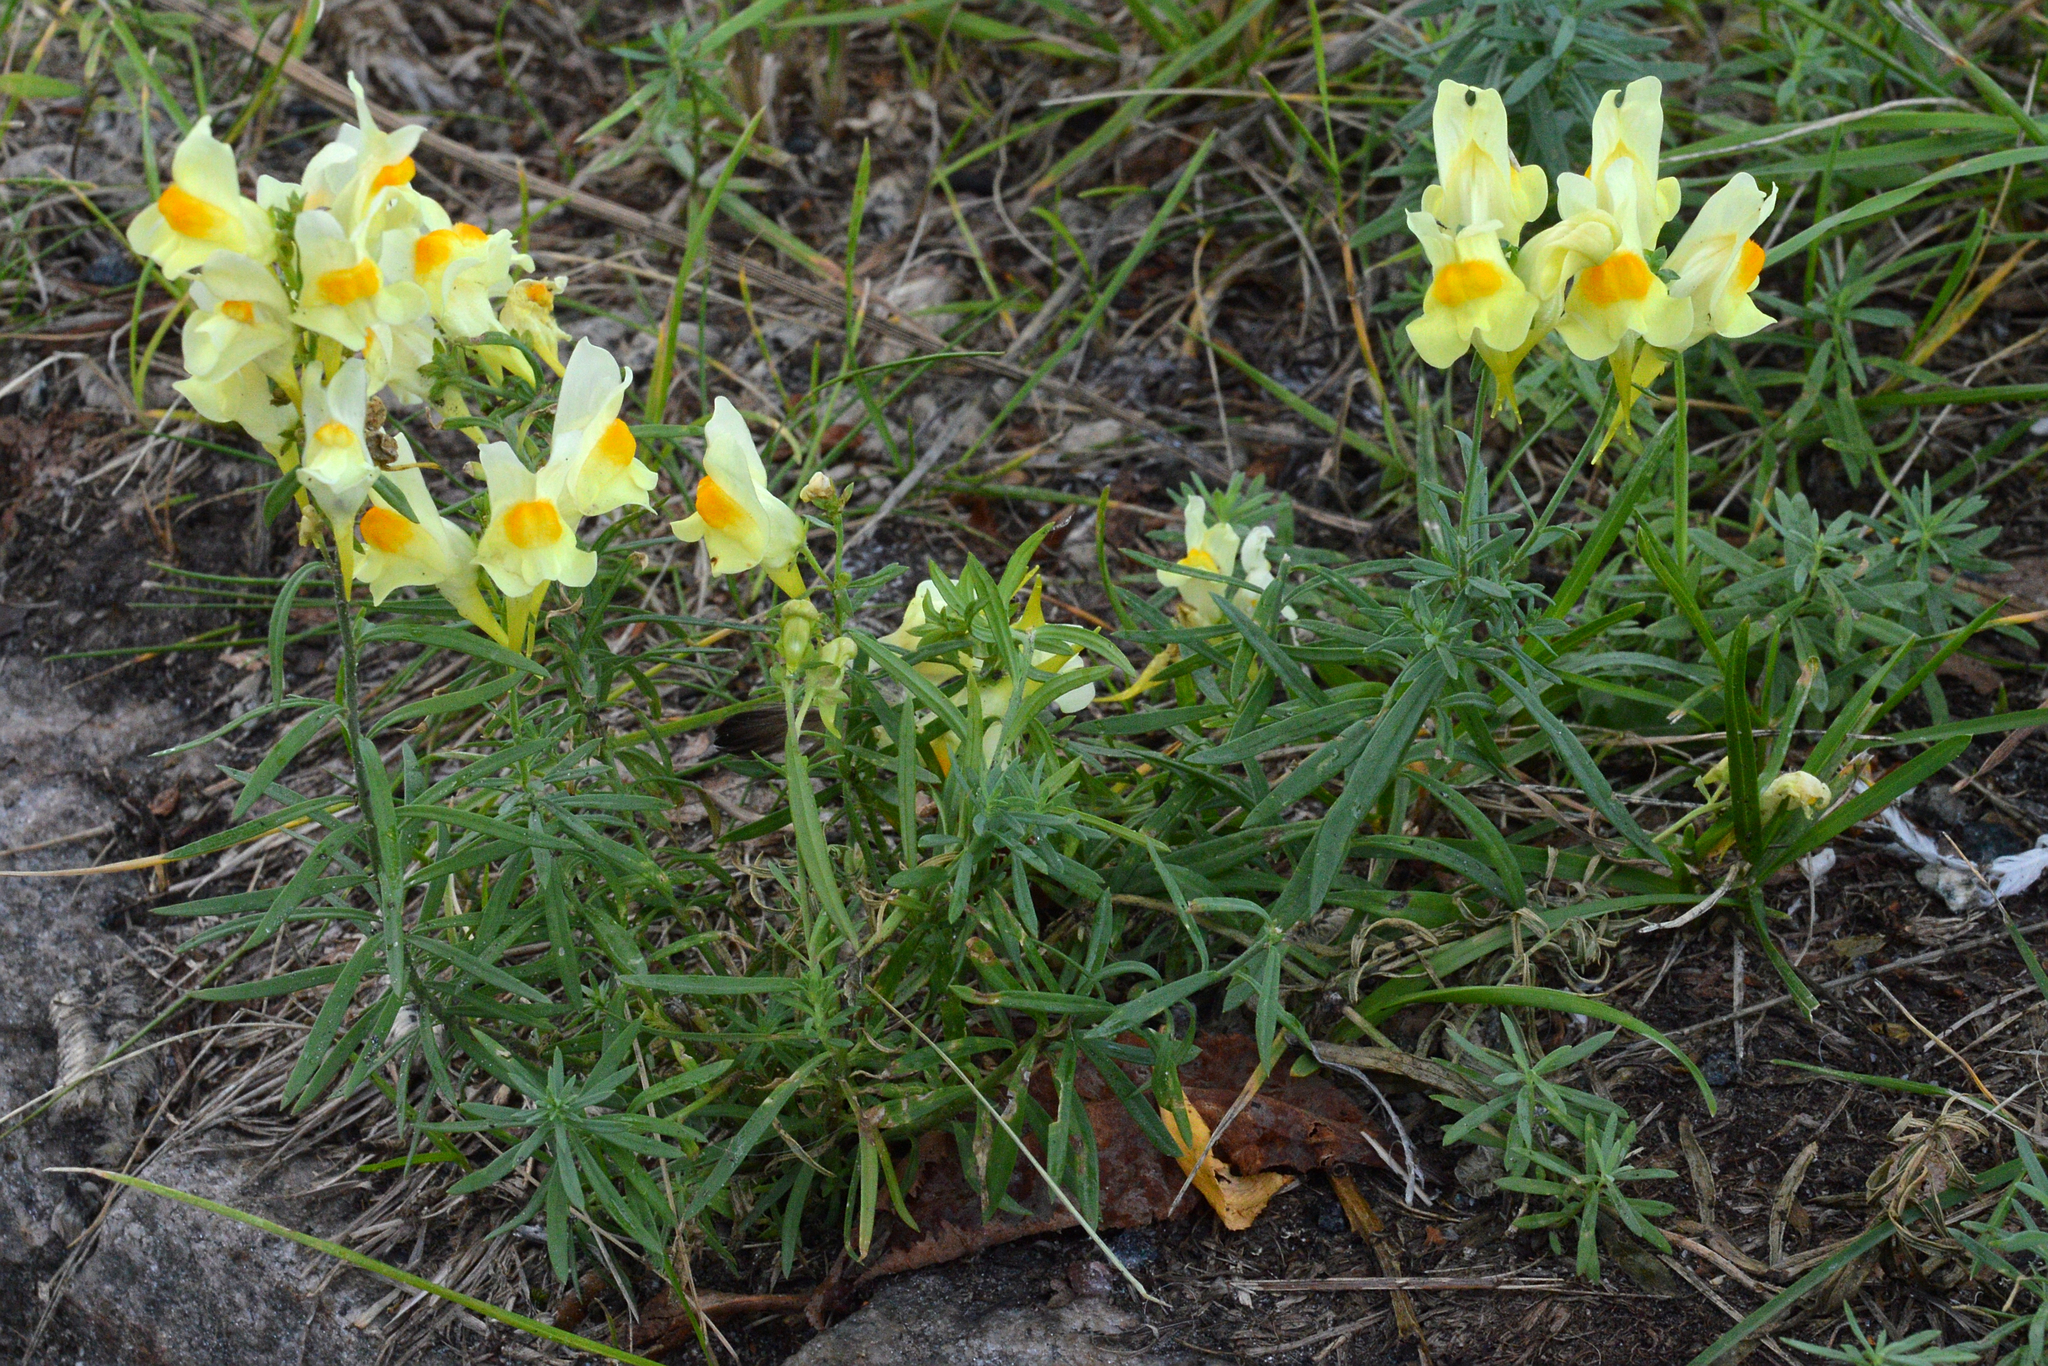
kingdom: Plantae
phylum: Tracheophyta
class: Magnoliopsida
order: Lamiales
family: Plantaginaceae
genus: Linaria
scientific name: Linaria vulgaris
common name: Butter and eggs
